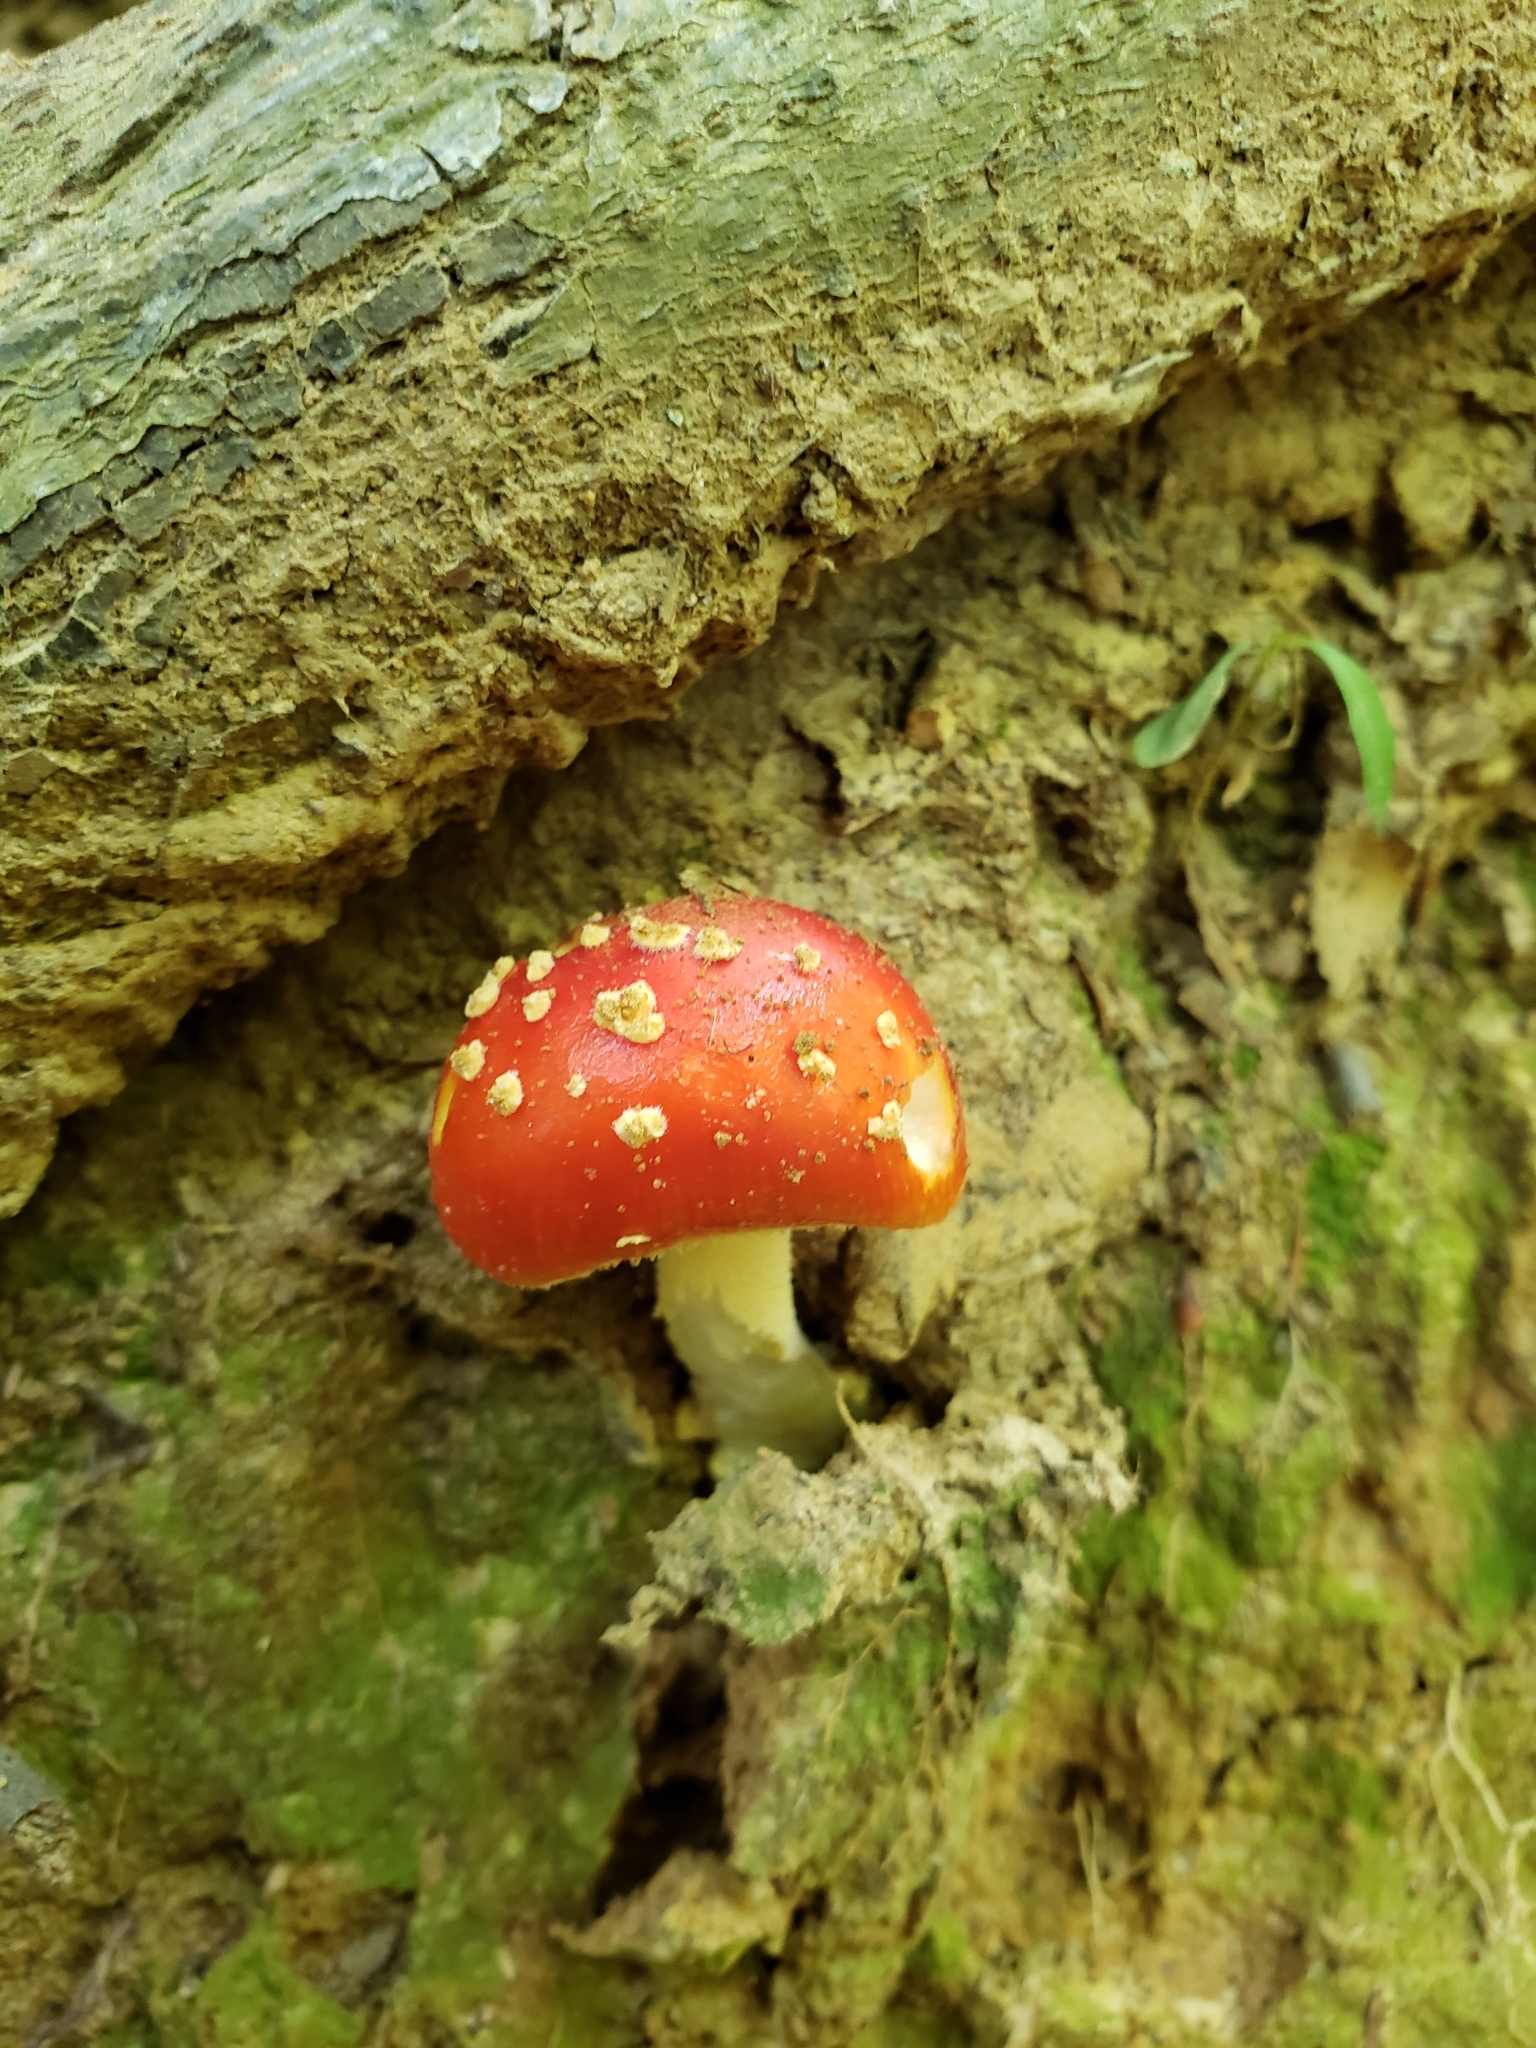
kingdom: Fungi
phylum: Basidiomycota
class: Agaricomycetes
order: Agaricales
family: Amanitaceae
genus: Amanita
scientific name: Amanita parcivolvata
